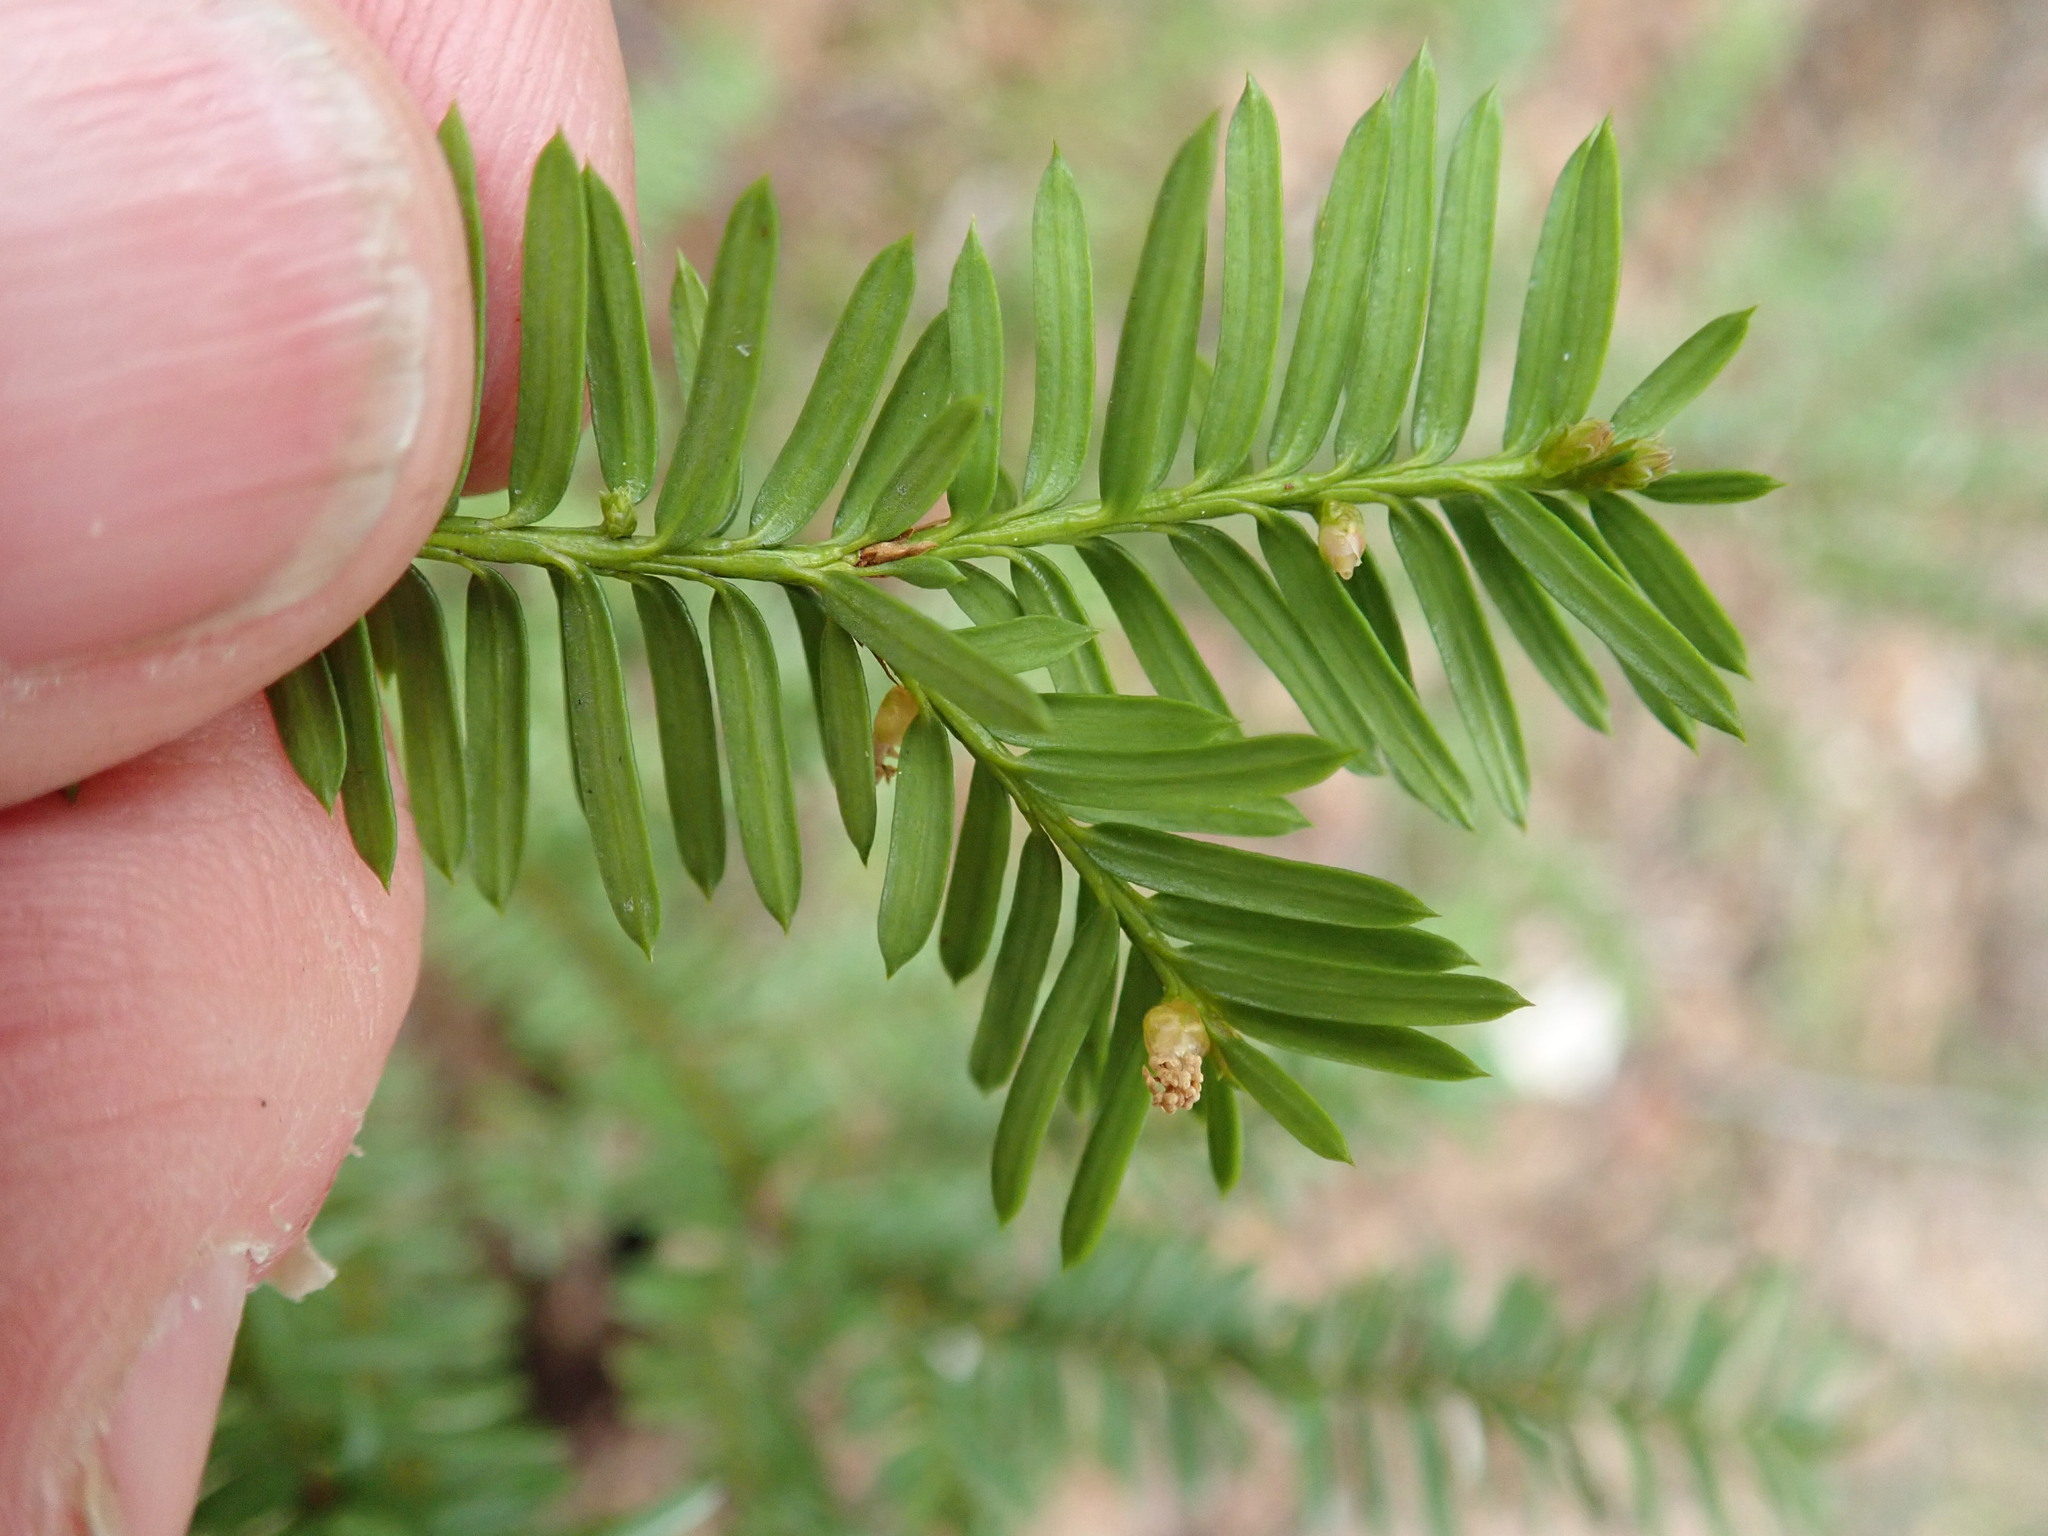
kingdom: Plantae
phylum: Tracheophyta
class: Pinopsida
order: Pinales
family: Taxaceae
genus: Taxus
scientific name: Taxus canadensis
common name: American yew
